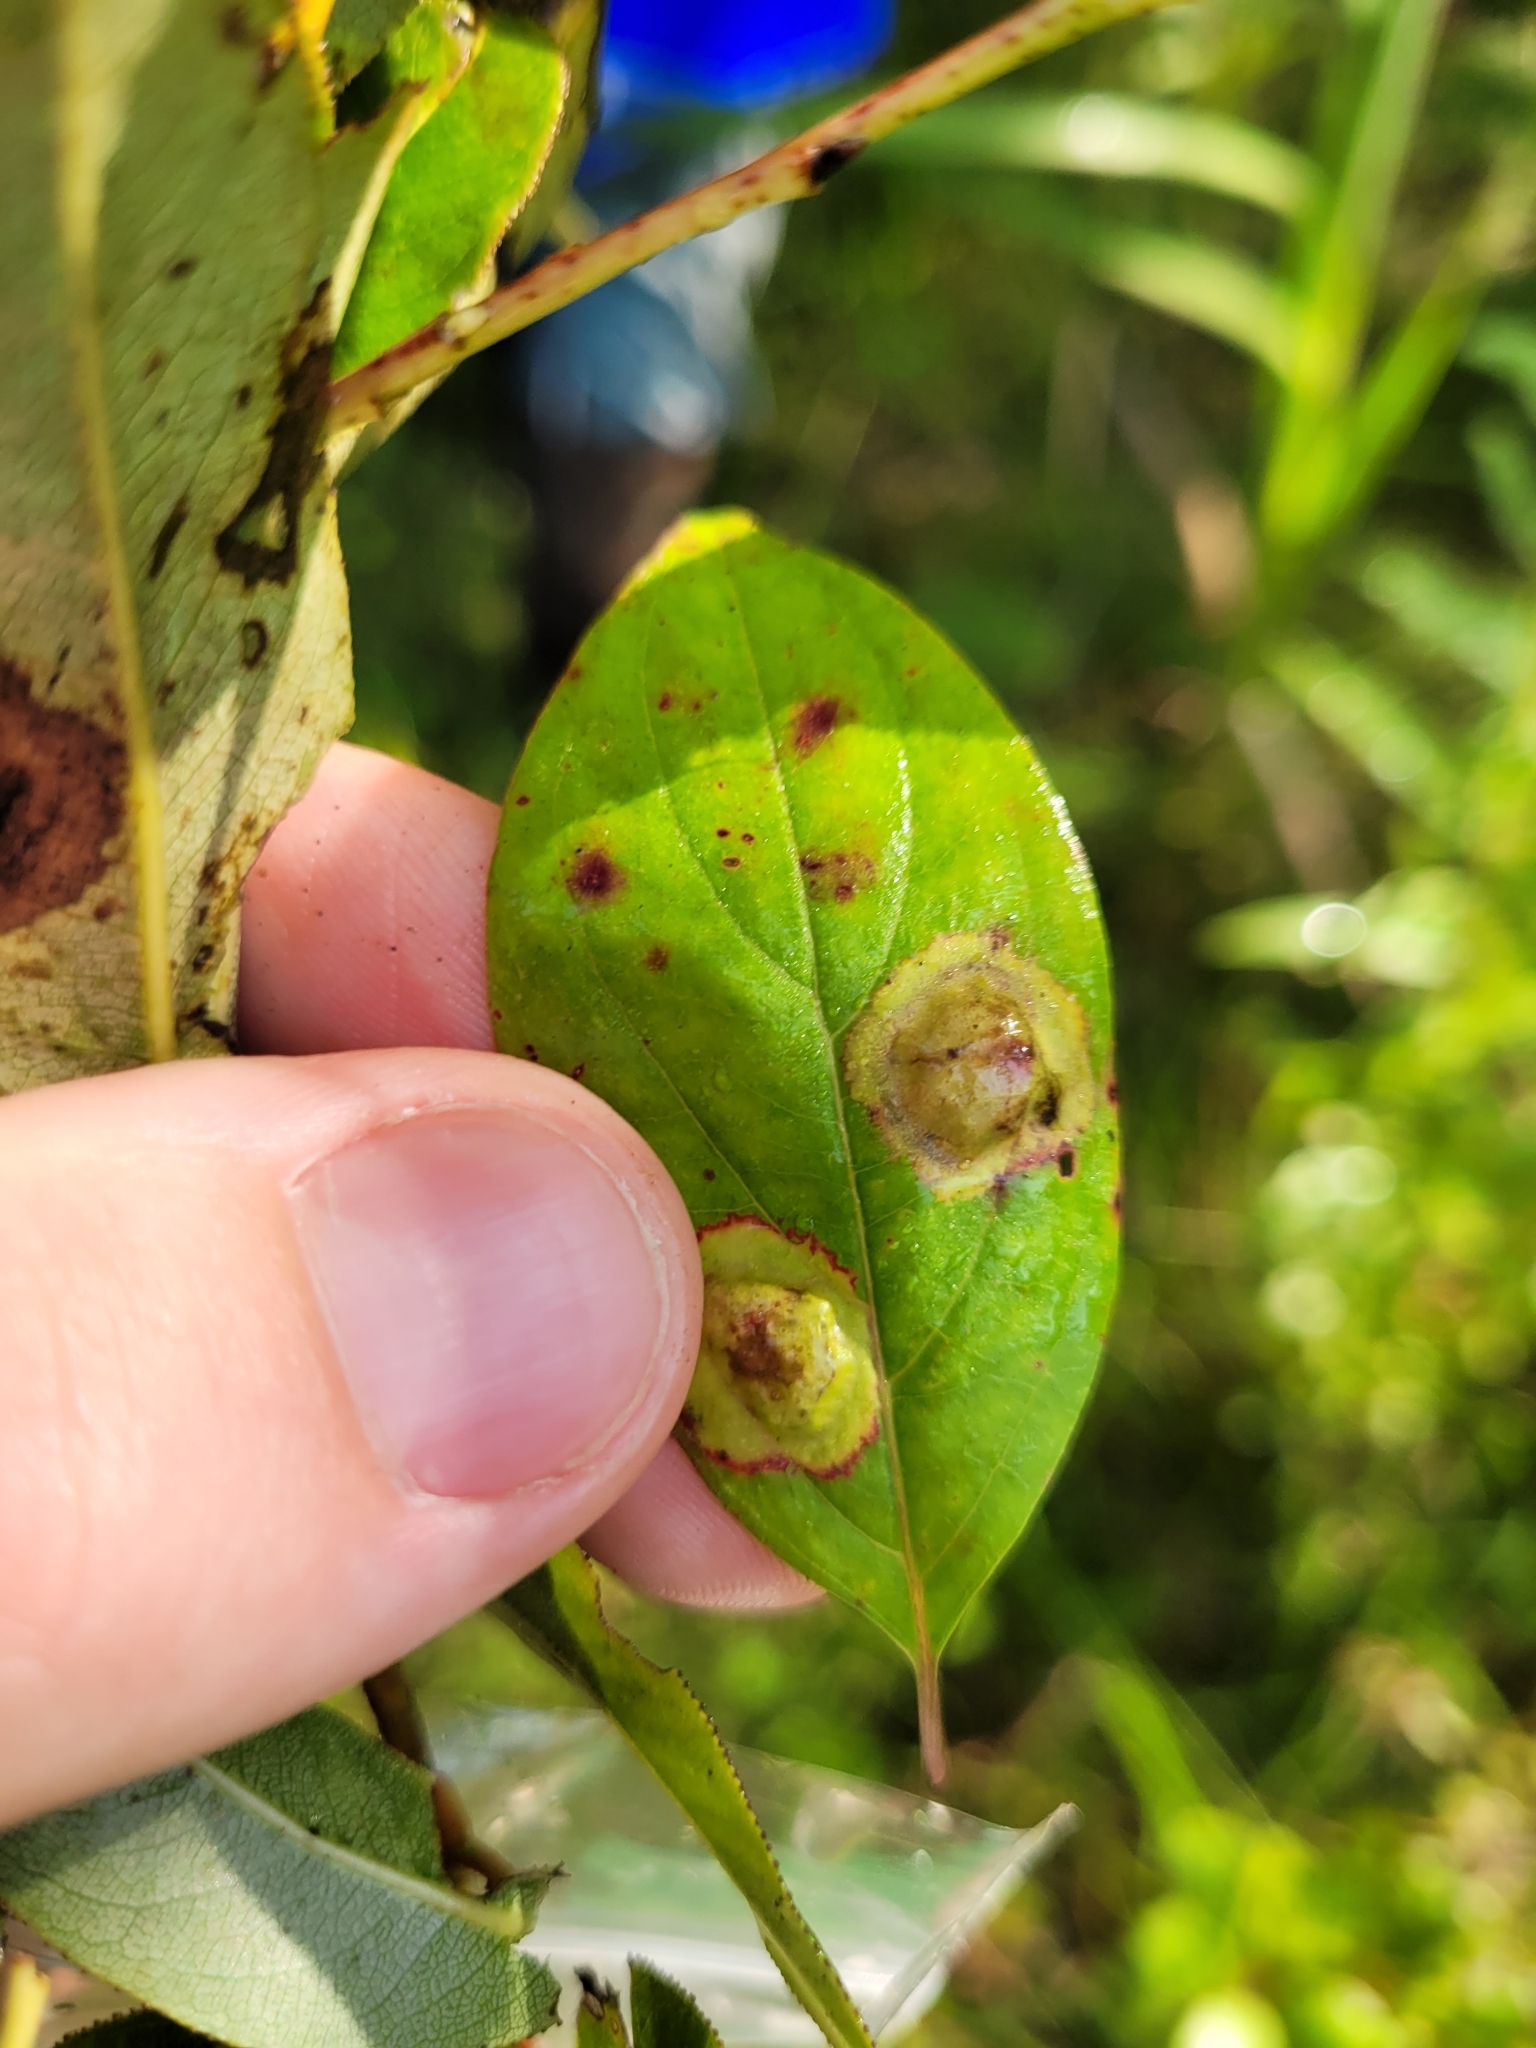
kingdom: Animalia
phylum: Arthropoda
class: Insecta
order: Diptera
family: Cecidomyiidae
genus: Parallelodiplosis
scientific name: Parallelodiplosis subtruncata
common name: Dogwood eyespot gall midge
